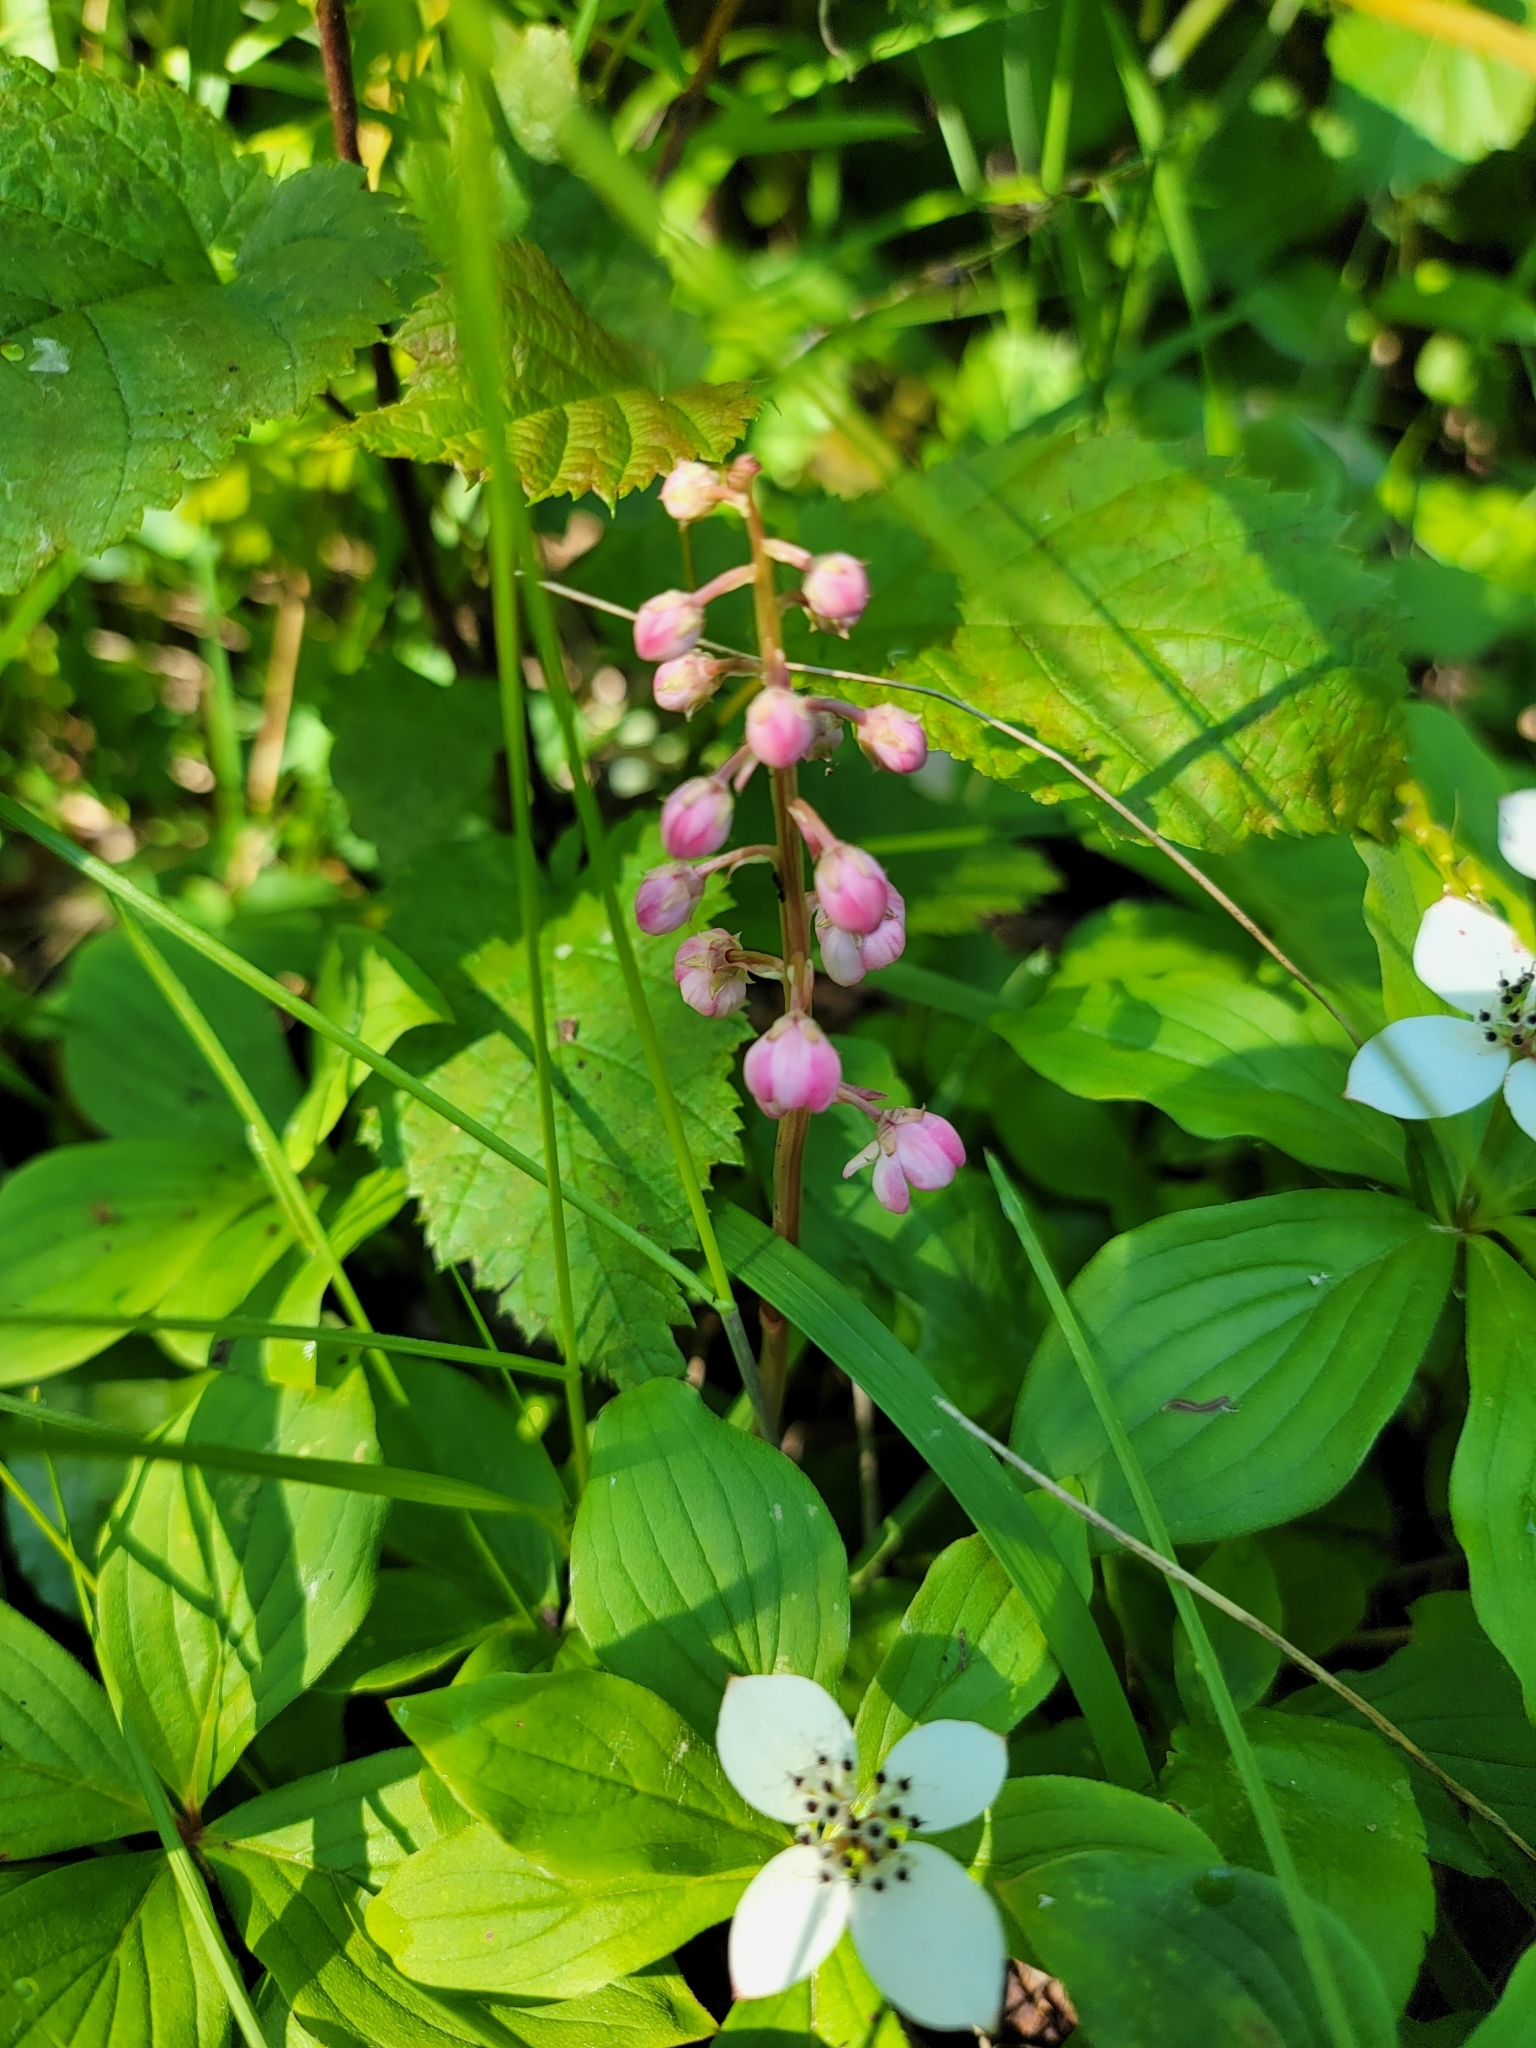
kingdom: Plantae
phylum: Tracheophyta
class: Magnoliopsida
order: Ericales
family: Ericaceae
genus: Pyrola
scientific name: Pyrola asarifolia
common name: Bog wintergreen
